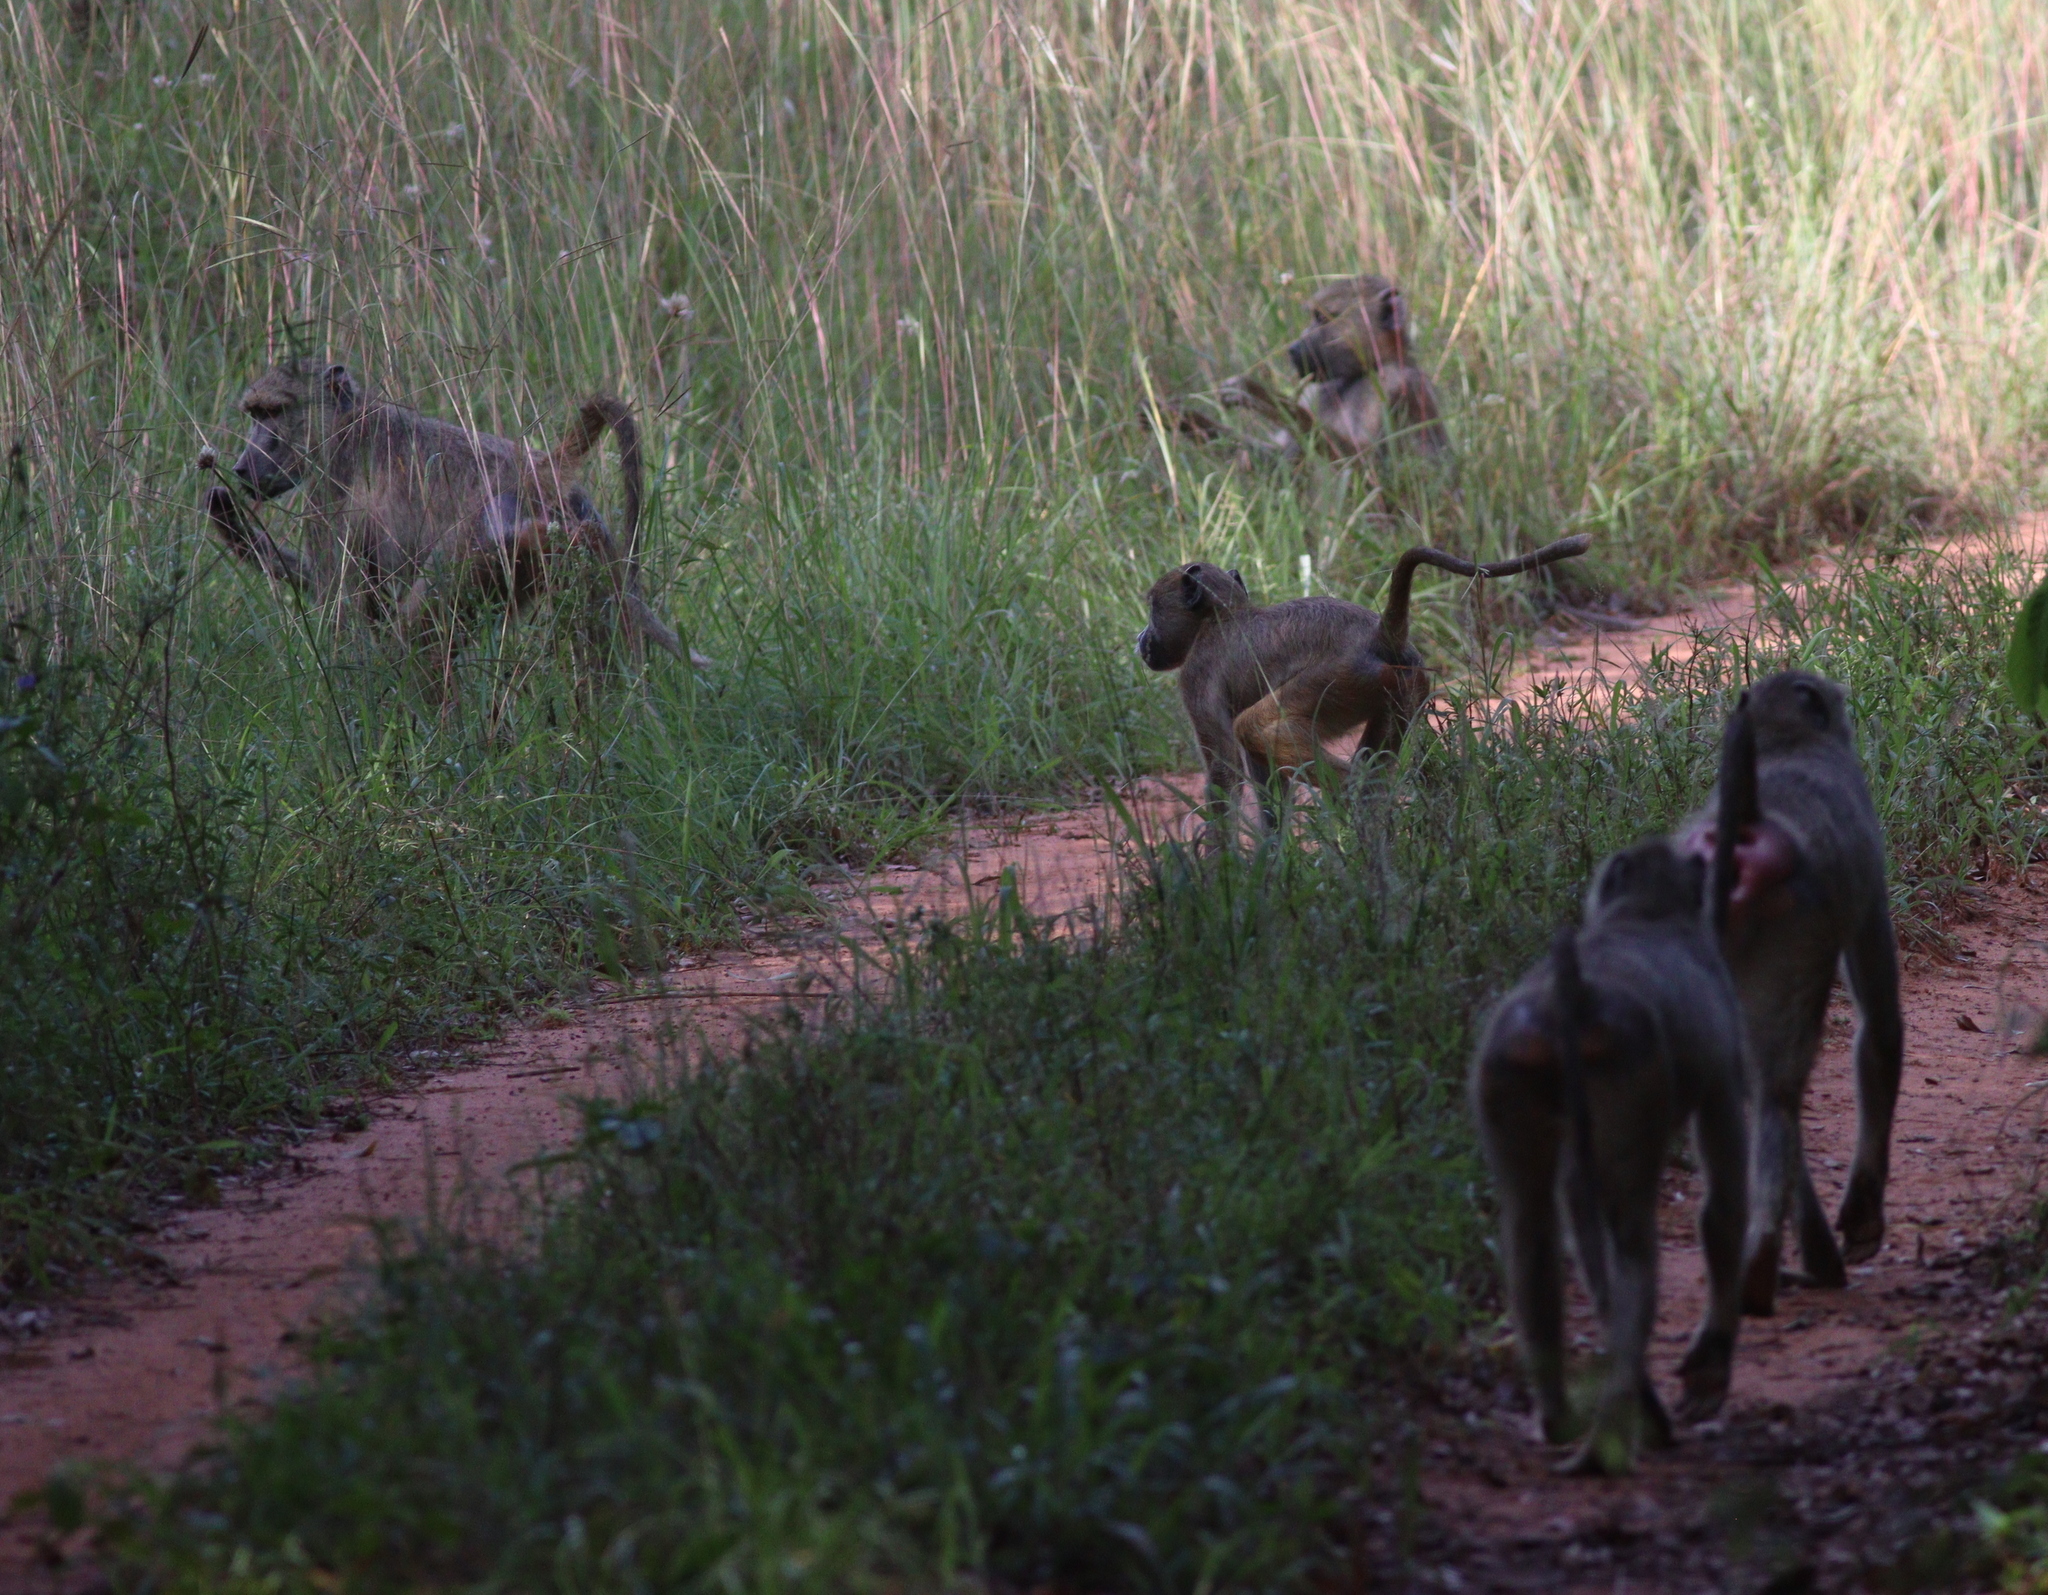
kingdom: Animalia
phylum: Chordata
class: Mammalia
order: Primates
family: Cercopithecidae
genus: Papio
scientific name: Papio cynocephalus
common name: Yellow baboon
